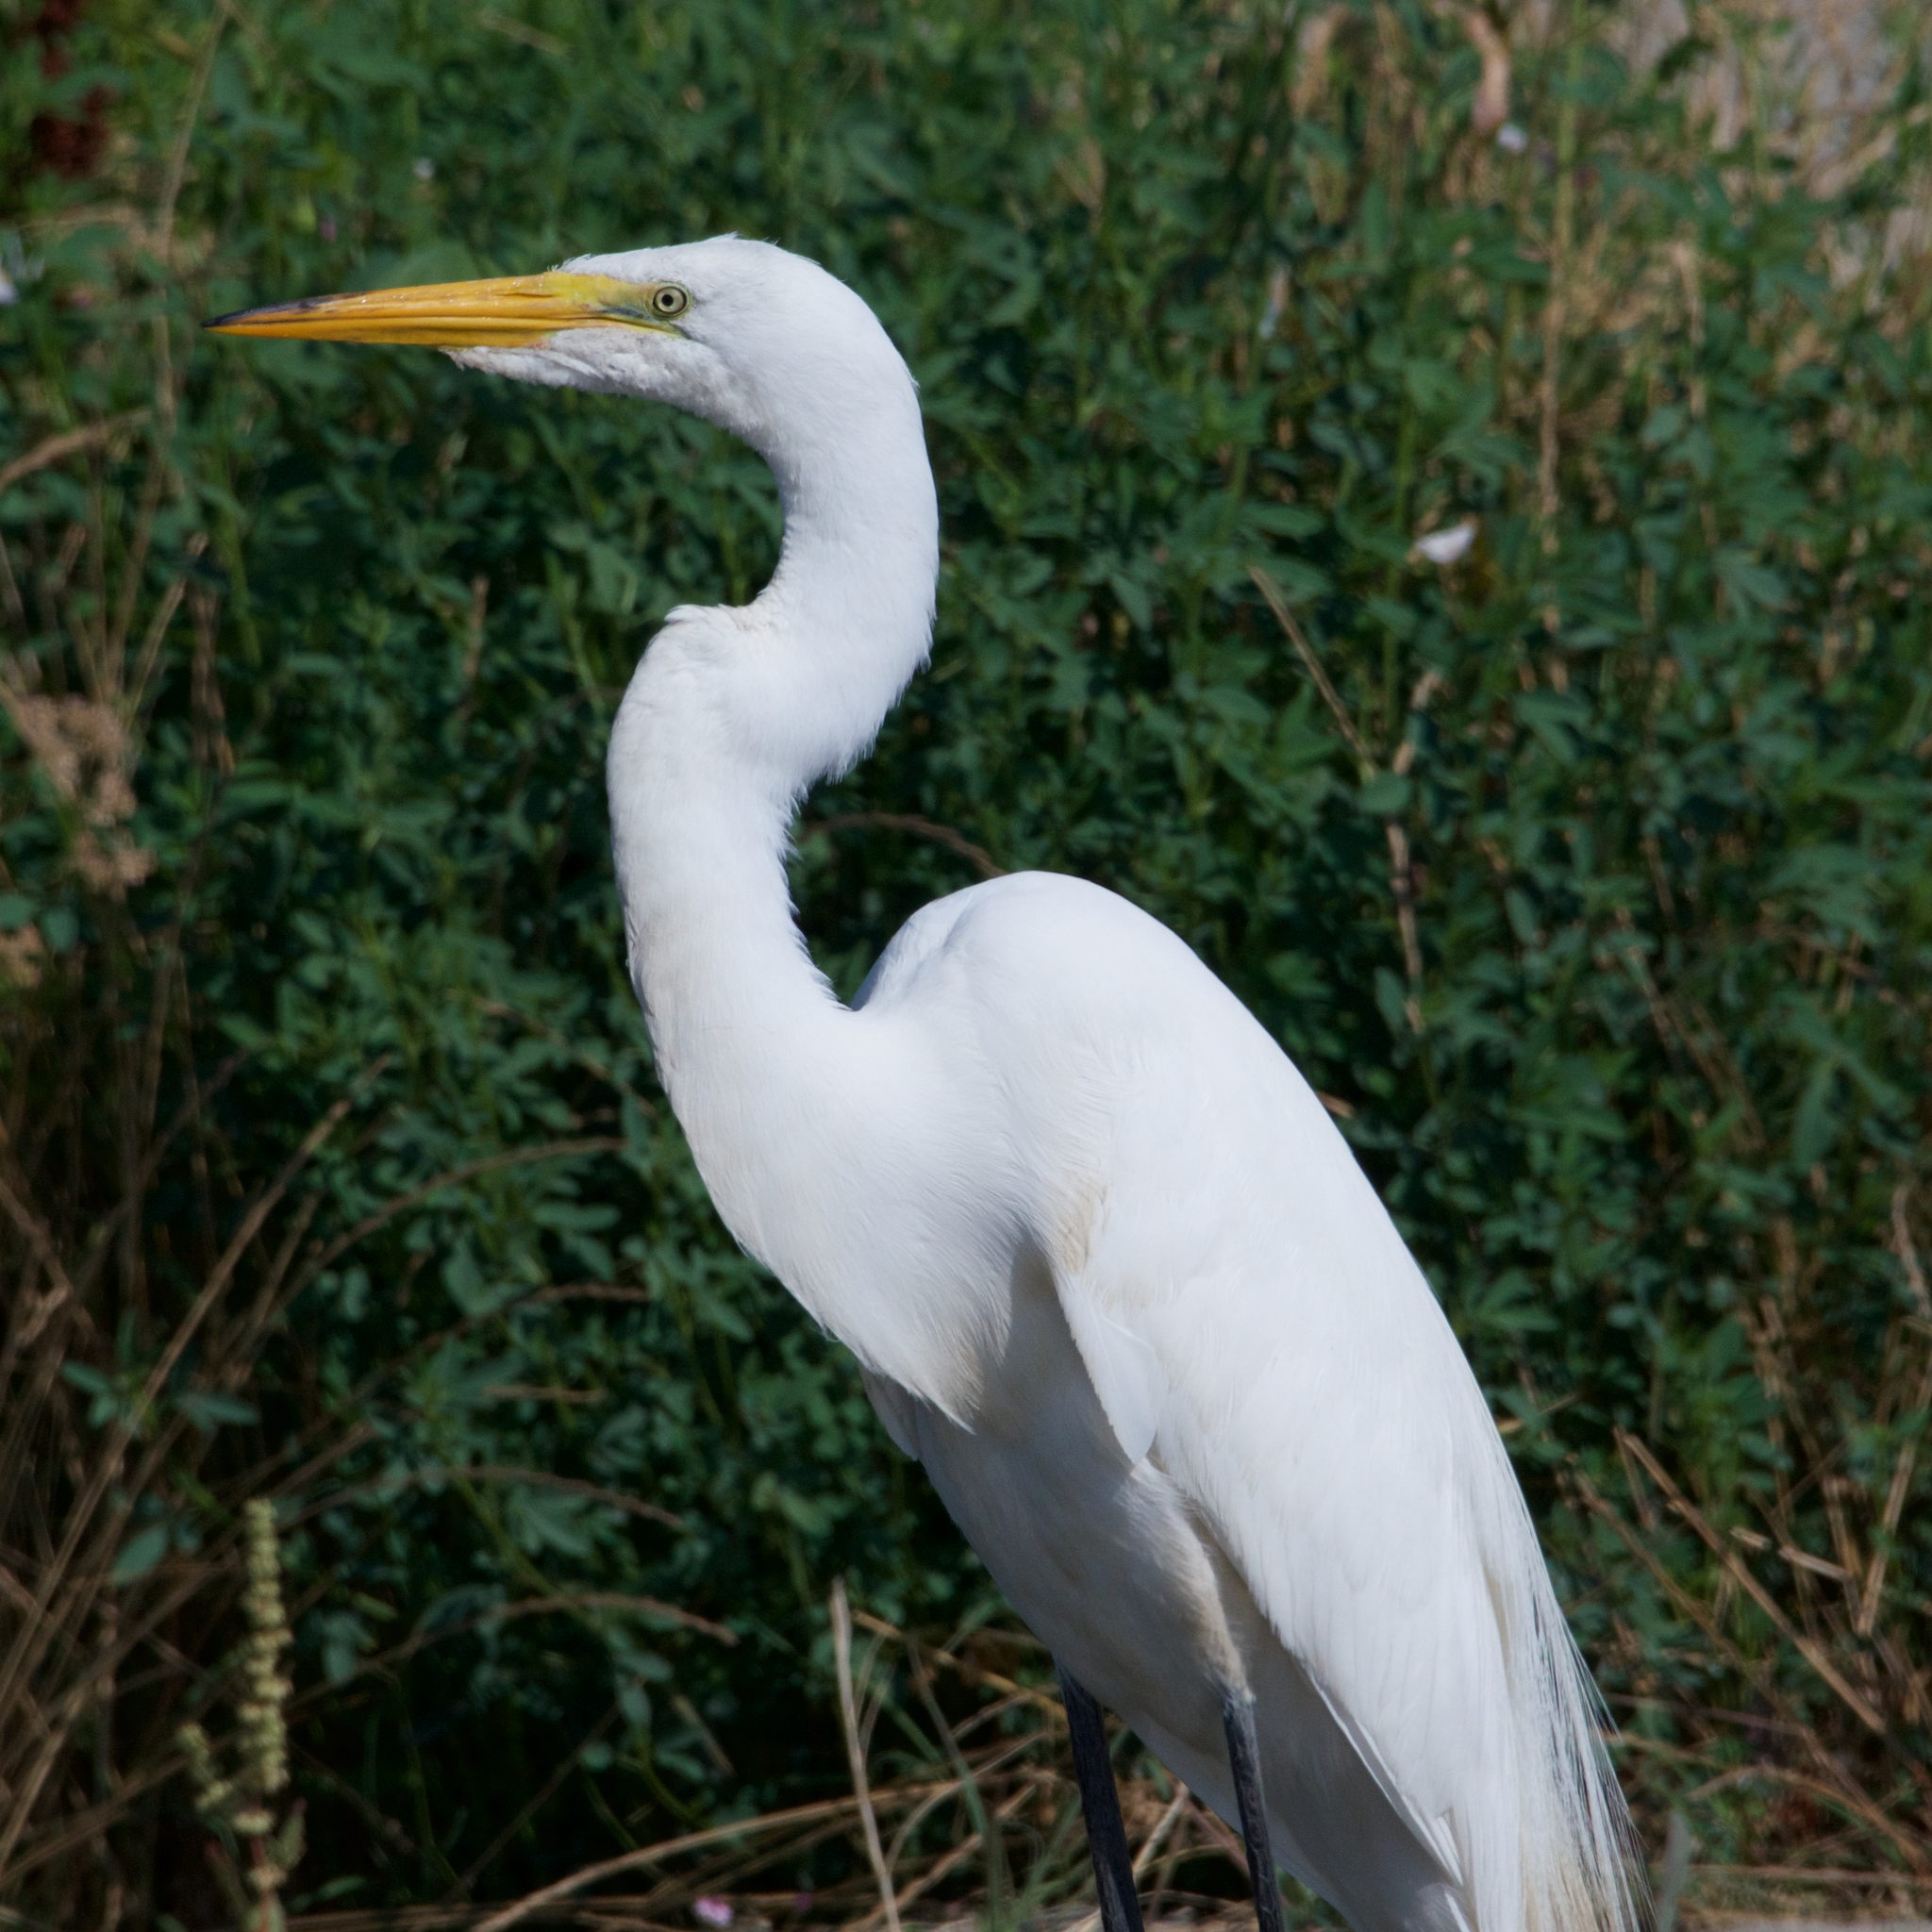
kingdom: Animalia
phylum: Chordata
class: Aves
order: Pelecaniformes
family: Ardeidae
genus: Ardea
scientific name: Ardea alba
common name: Great egret
